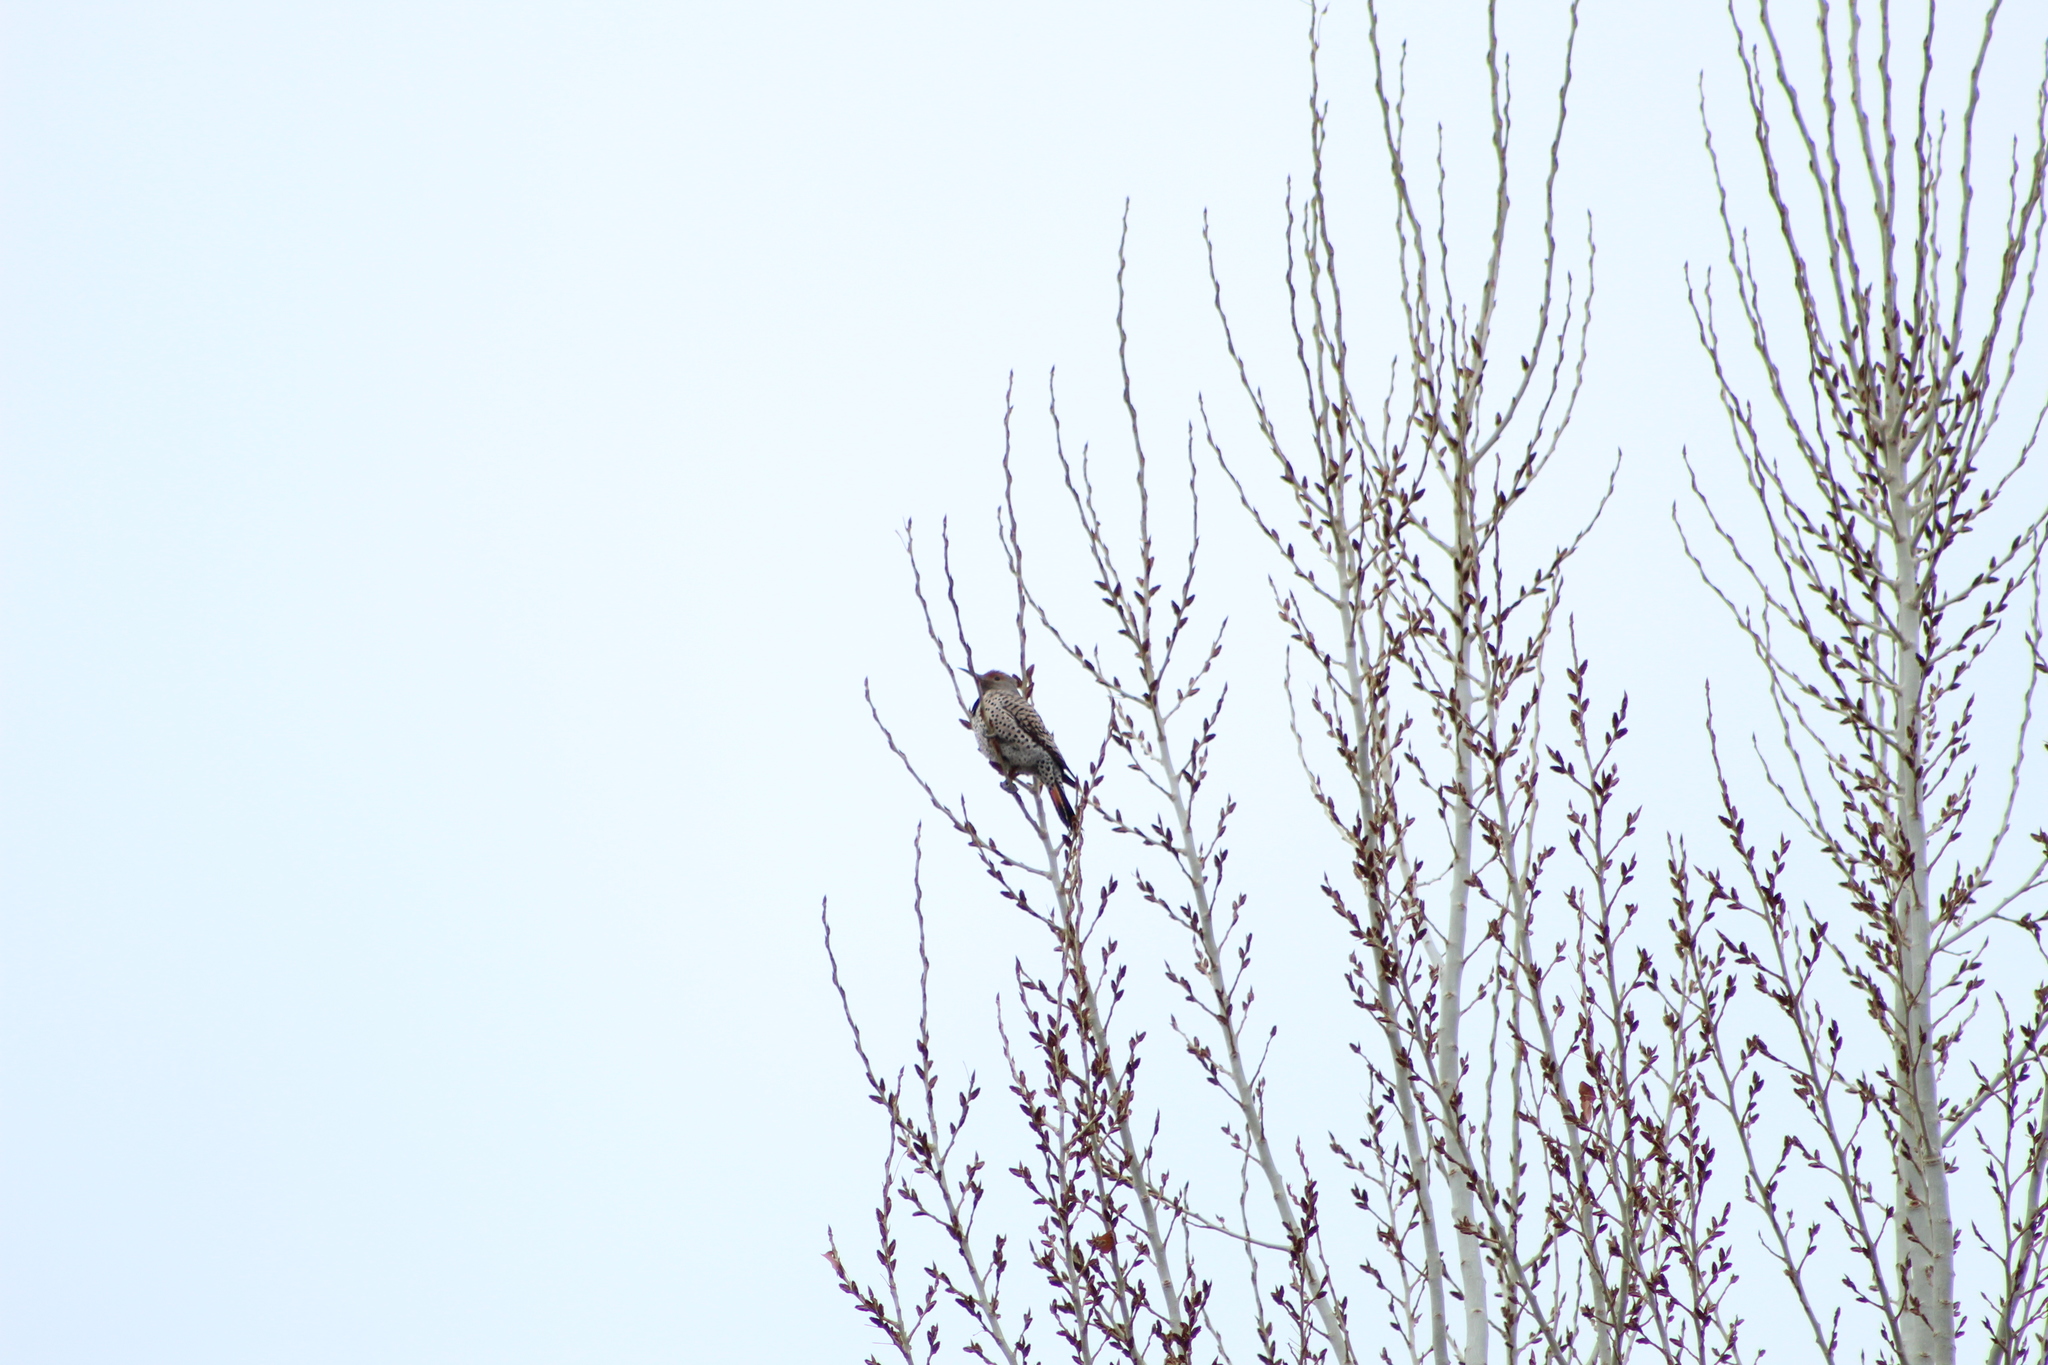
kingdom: Animalia
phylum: Chordata
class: Aves
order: Piciformes
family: Picidae
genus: Colaptes
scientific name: Colaptes auratus
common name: Northern flicker
